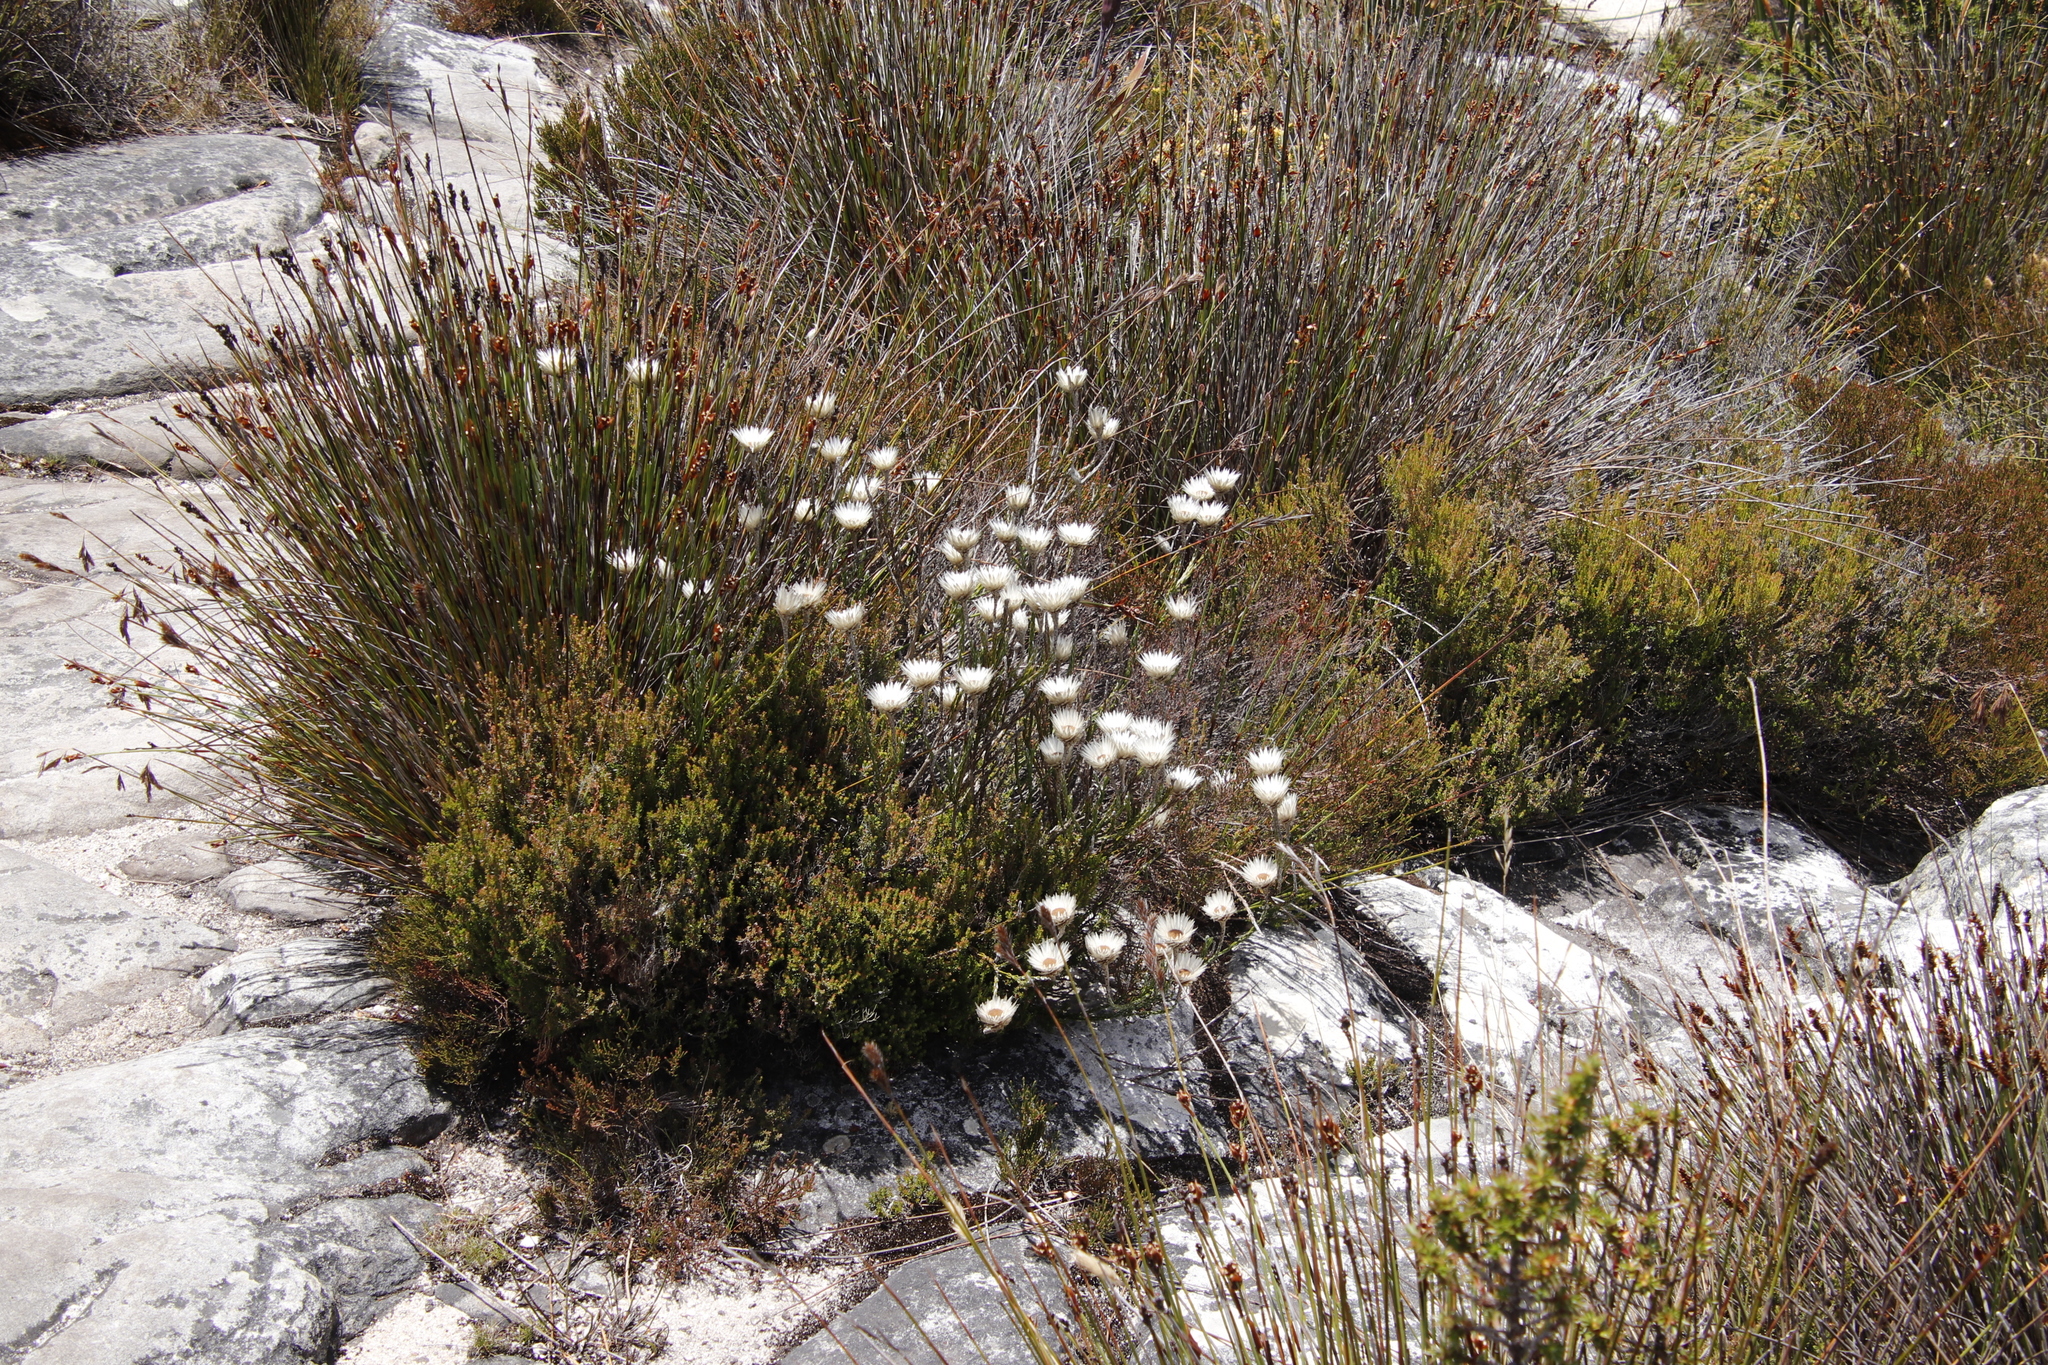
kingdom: Plantae
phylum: Tracheophyta
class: Magnoliopsida
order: Asterales
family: Asteraceae
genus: Edmondia
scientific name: Edmondia pinifolia
